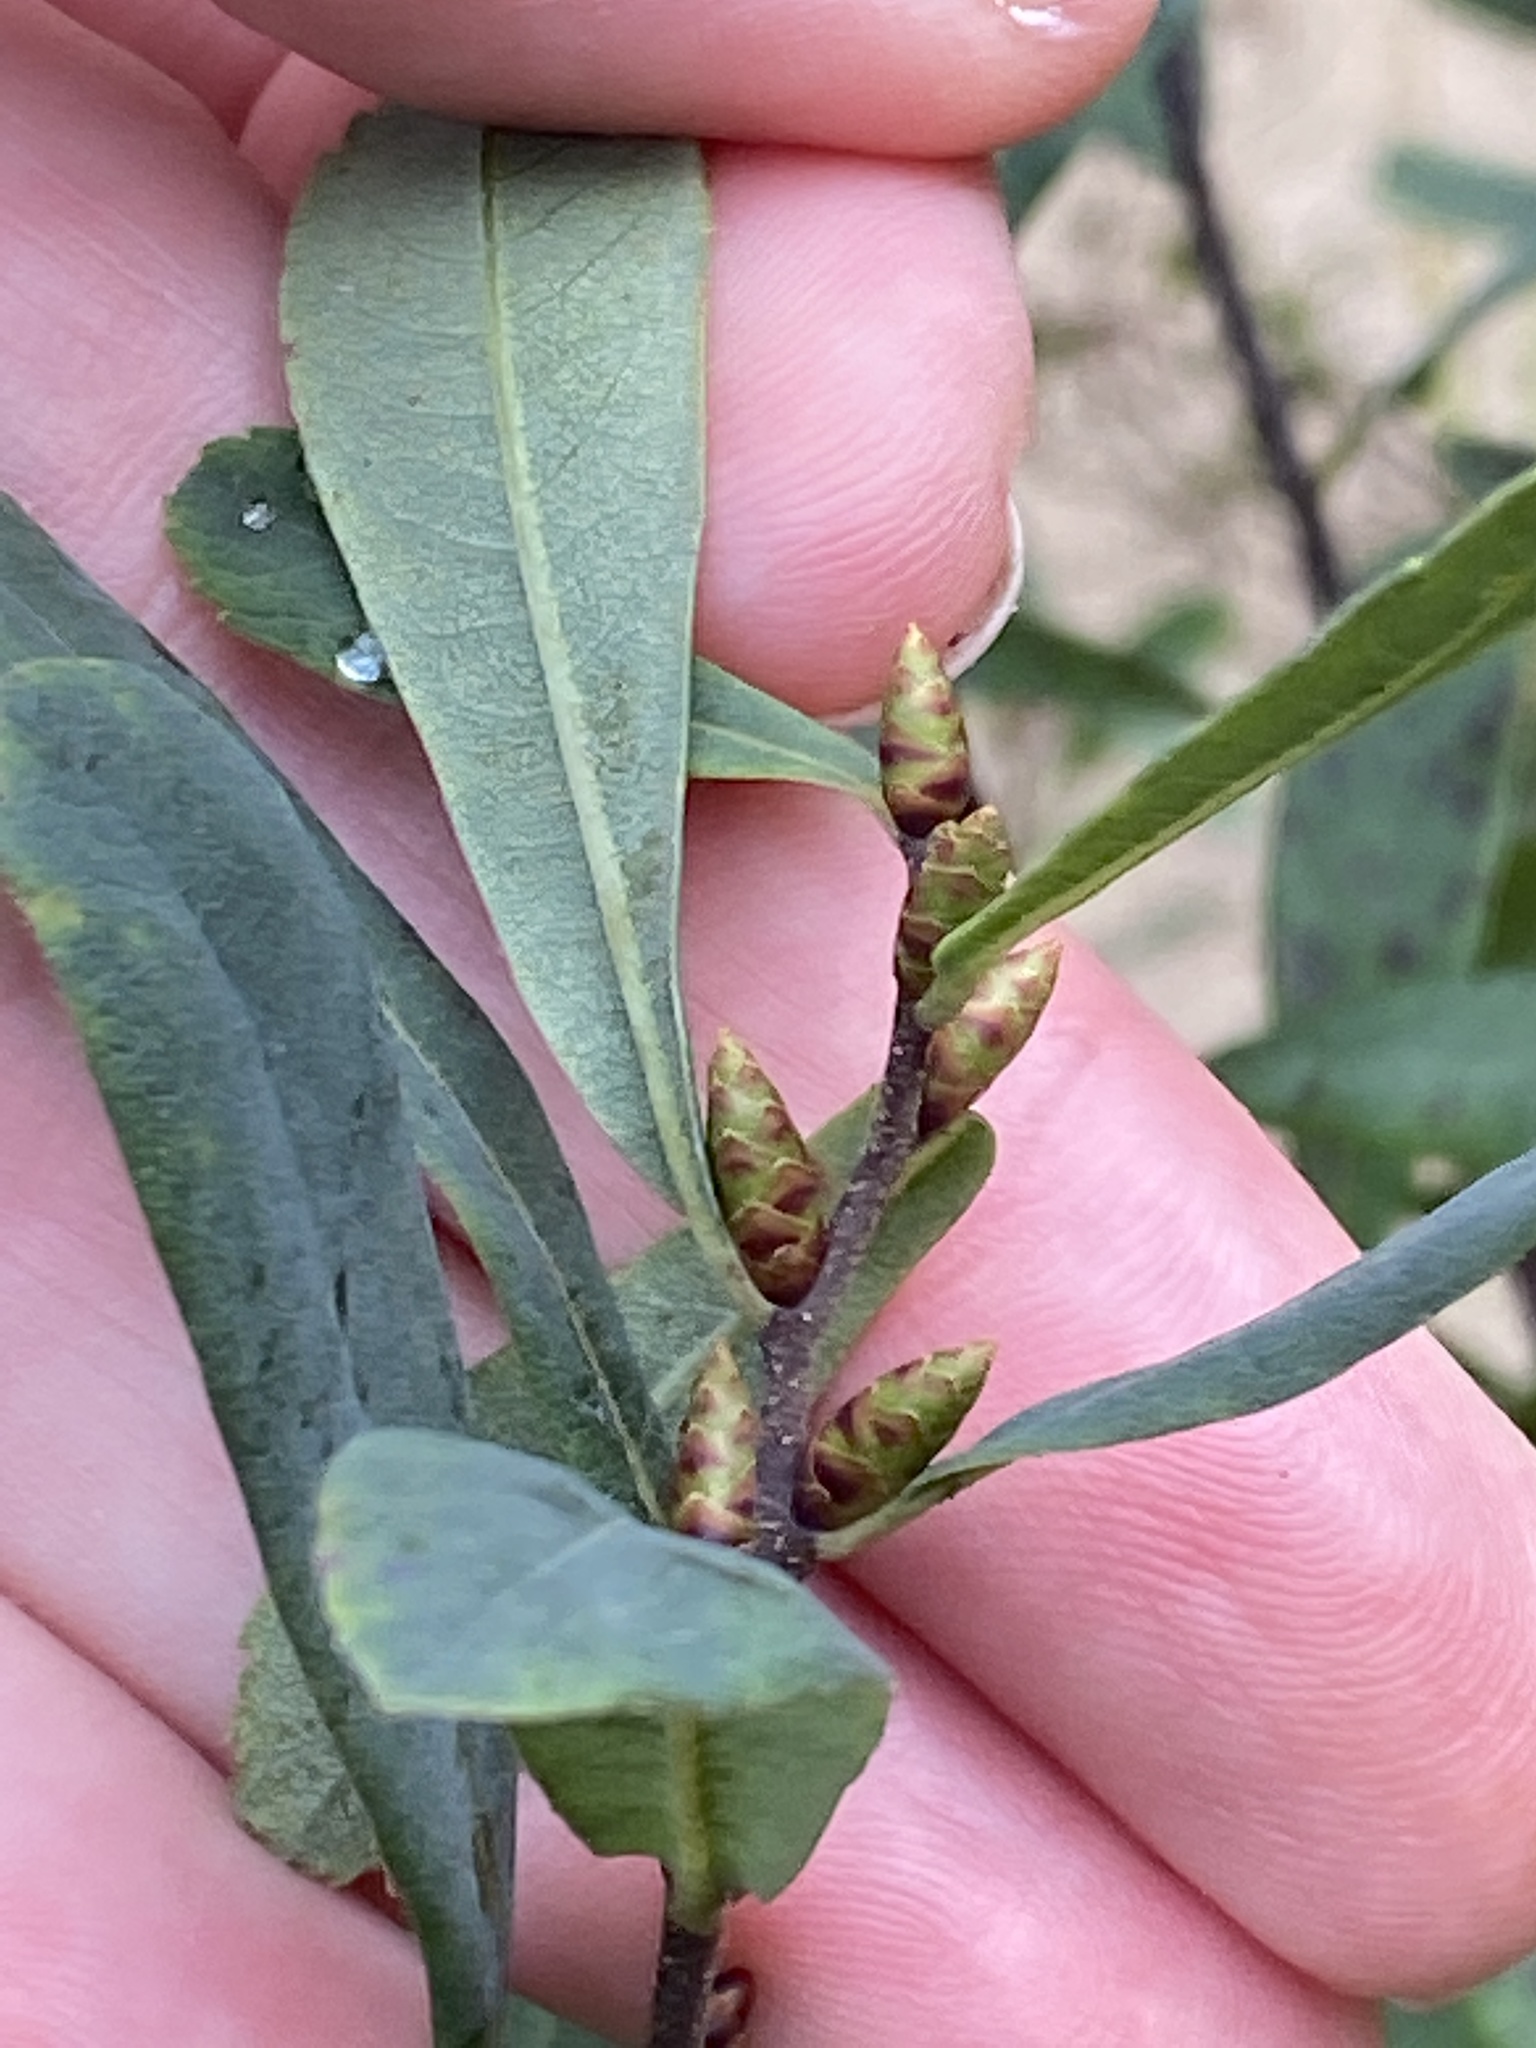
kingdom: Plantae
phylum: Tracheophyta
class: Magnoliopsida
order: Fagales
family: Myricaceae
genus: Myrica
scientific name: Myrica gale
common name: Sweet gale
